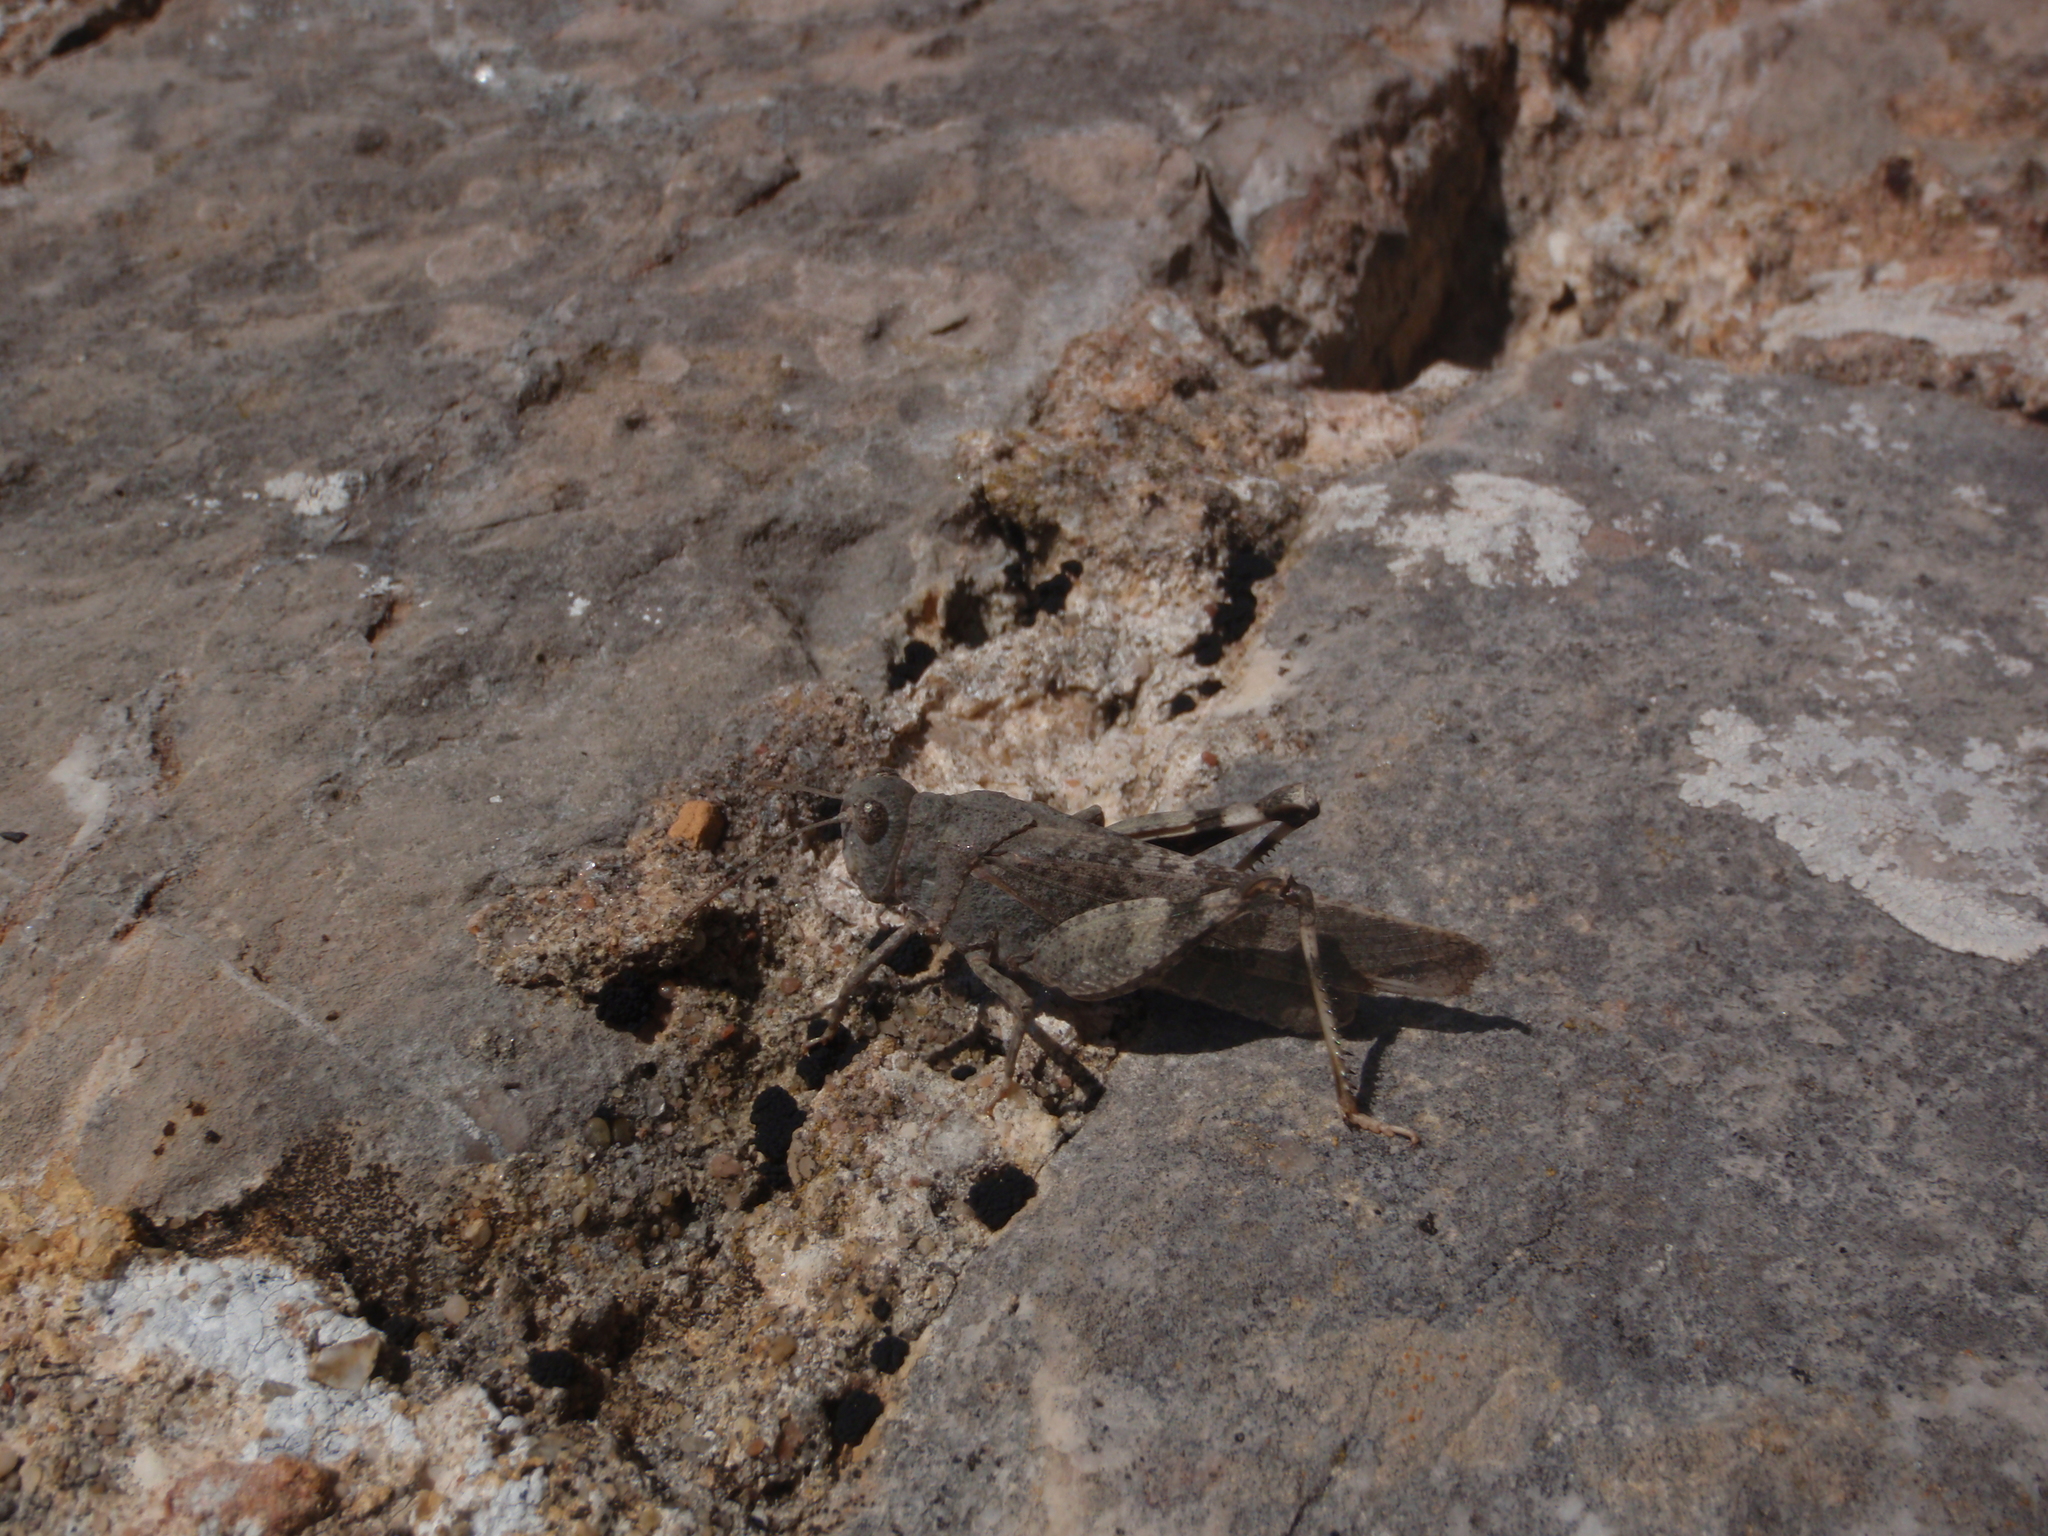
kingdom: Animalia
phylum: Arthropoda
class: Insecta
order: Orthoptera
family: Acrididae
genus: Oedipoda
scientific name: Oedipoda germanica
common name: Red band-winged grasshopper
